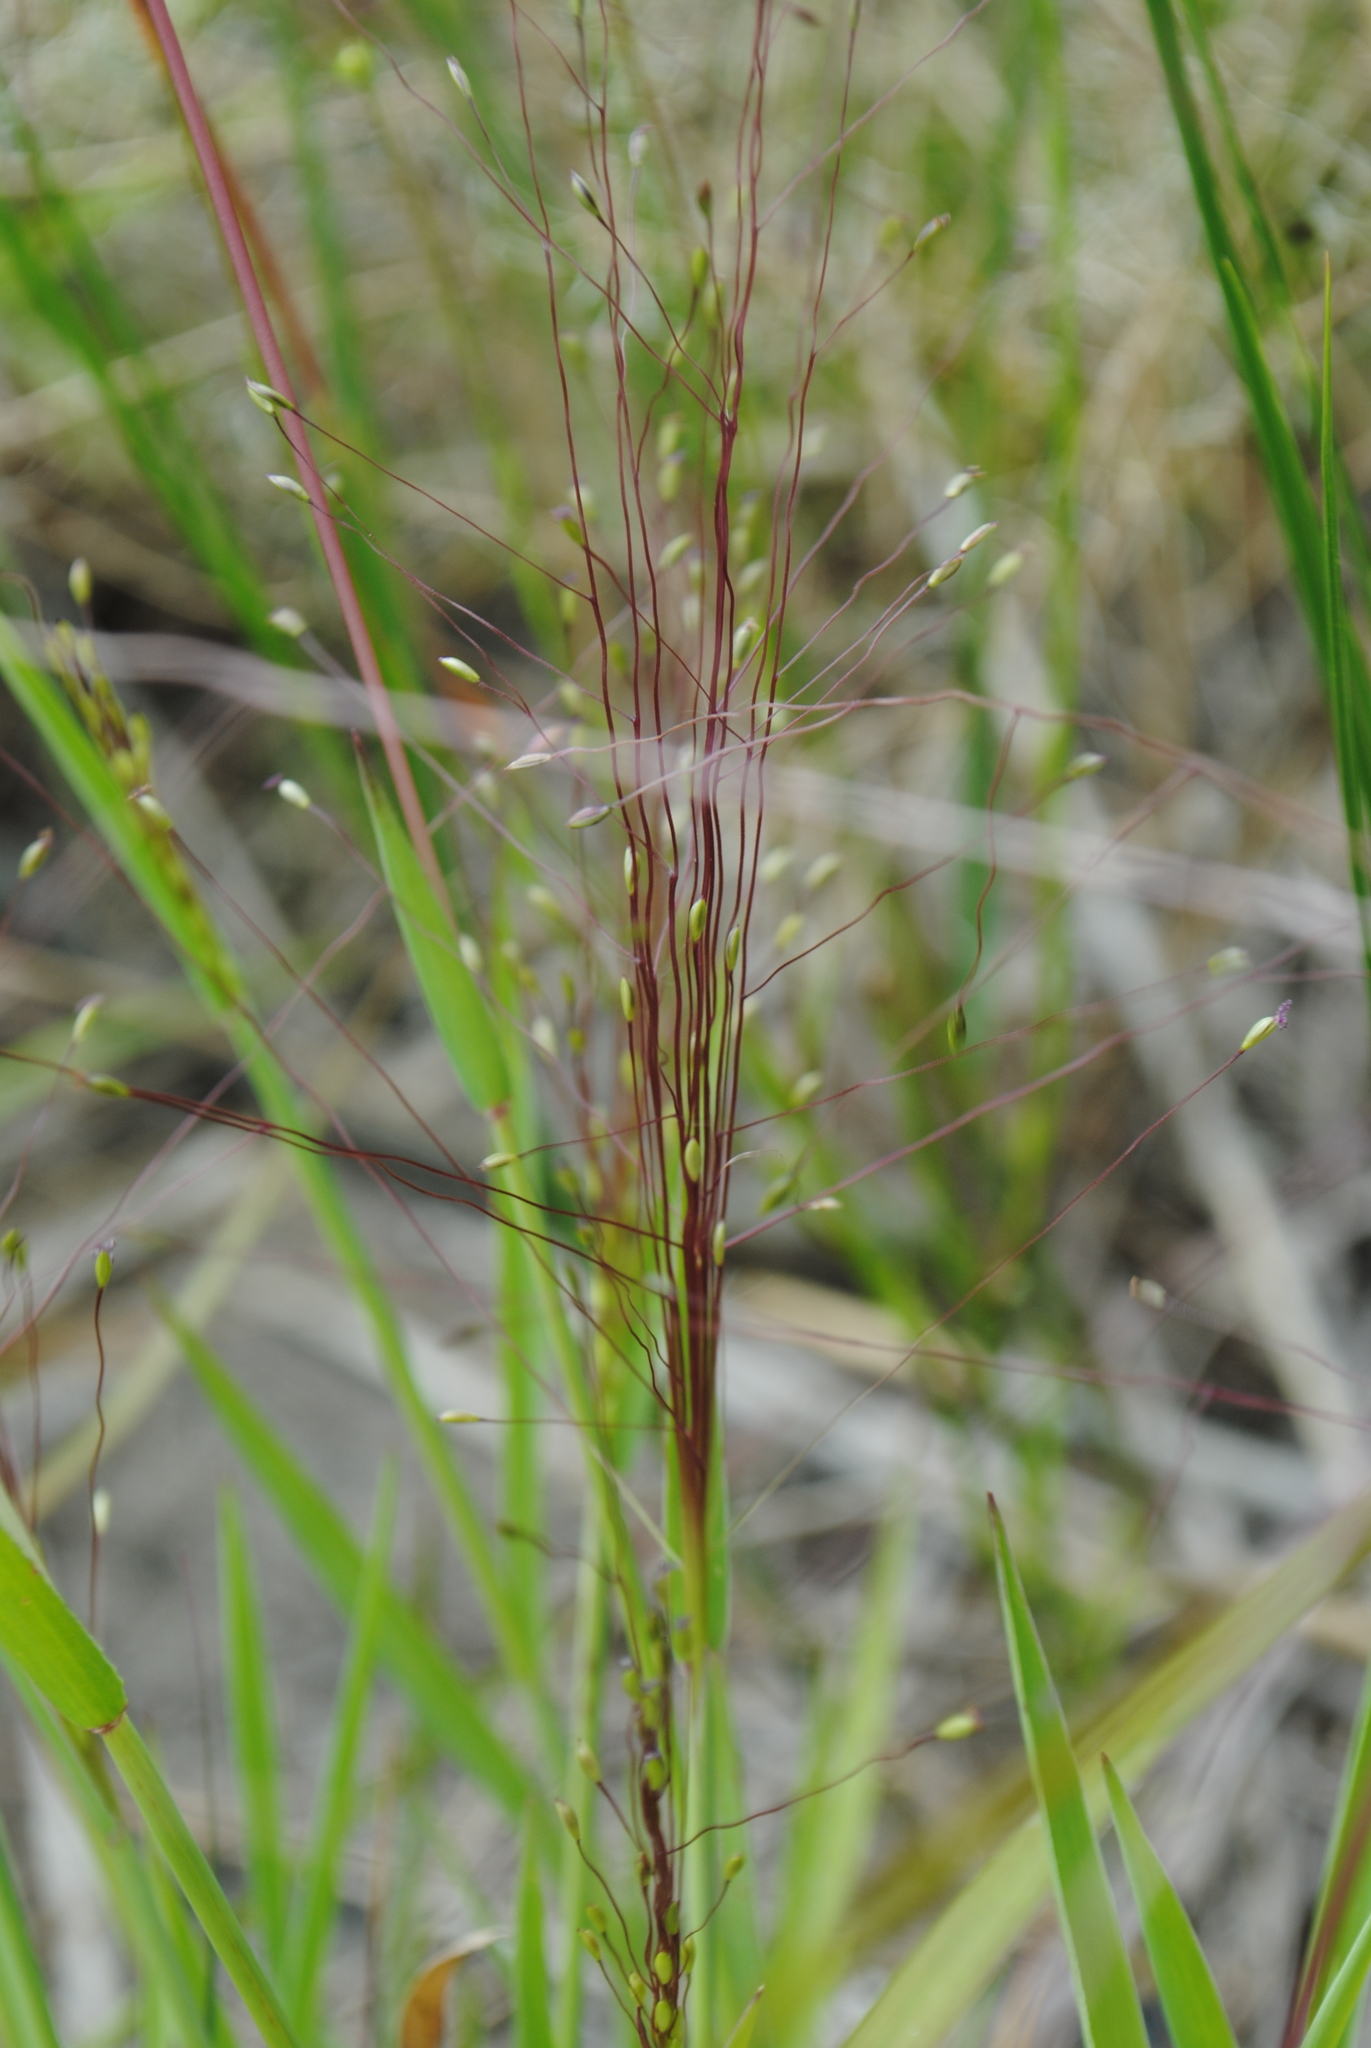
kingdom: Plantae
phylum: Tracheophyta
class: Liliopsida
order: Poales
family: Poaceae
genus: Digitaria
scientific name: Digitaria cognata
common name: Fall witchgrass
